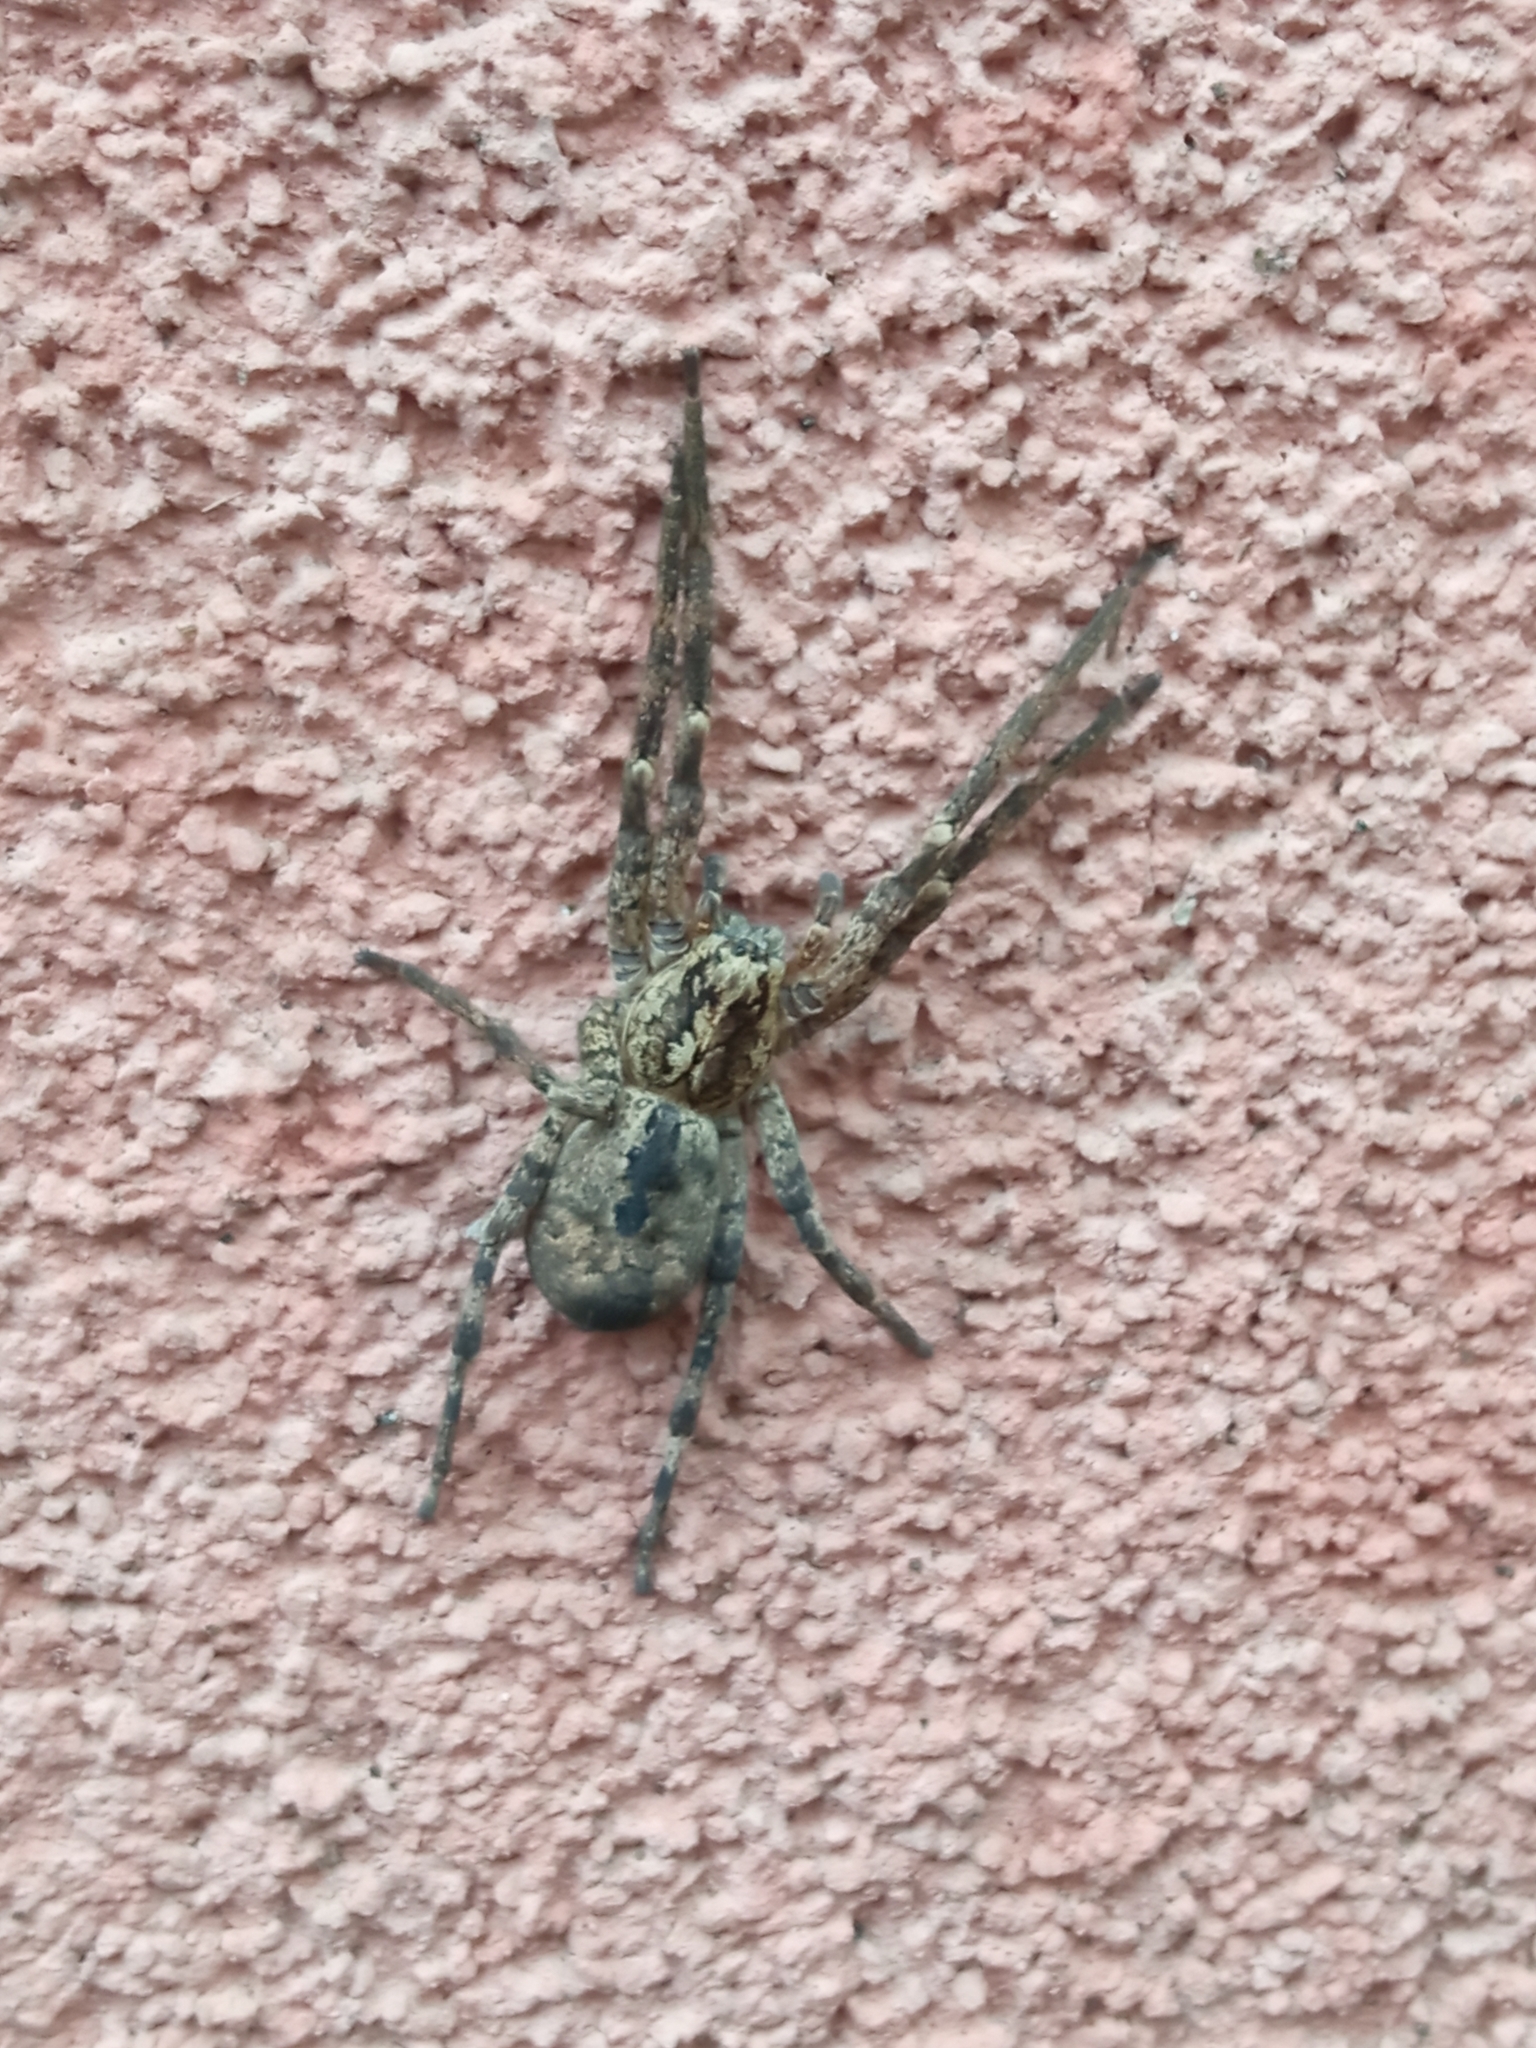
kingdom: Animalia
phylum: Arthropoda
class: Arachnida
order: Araneae
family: Zoropsidae
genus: Zoropsis
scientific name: Zoropsis spinimana
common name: Zoropsid spider
